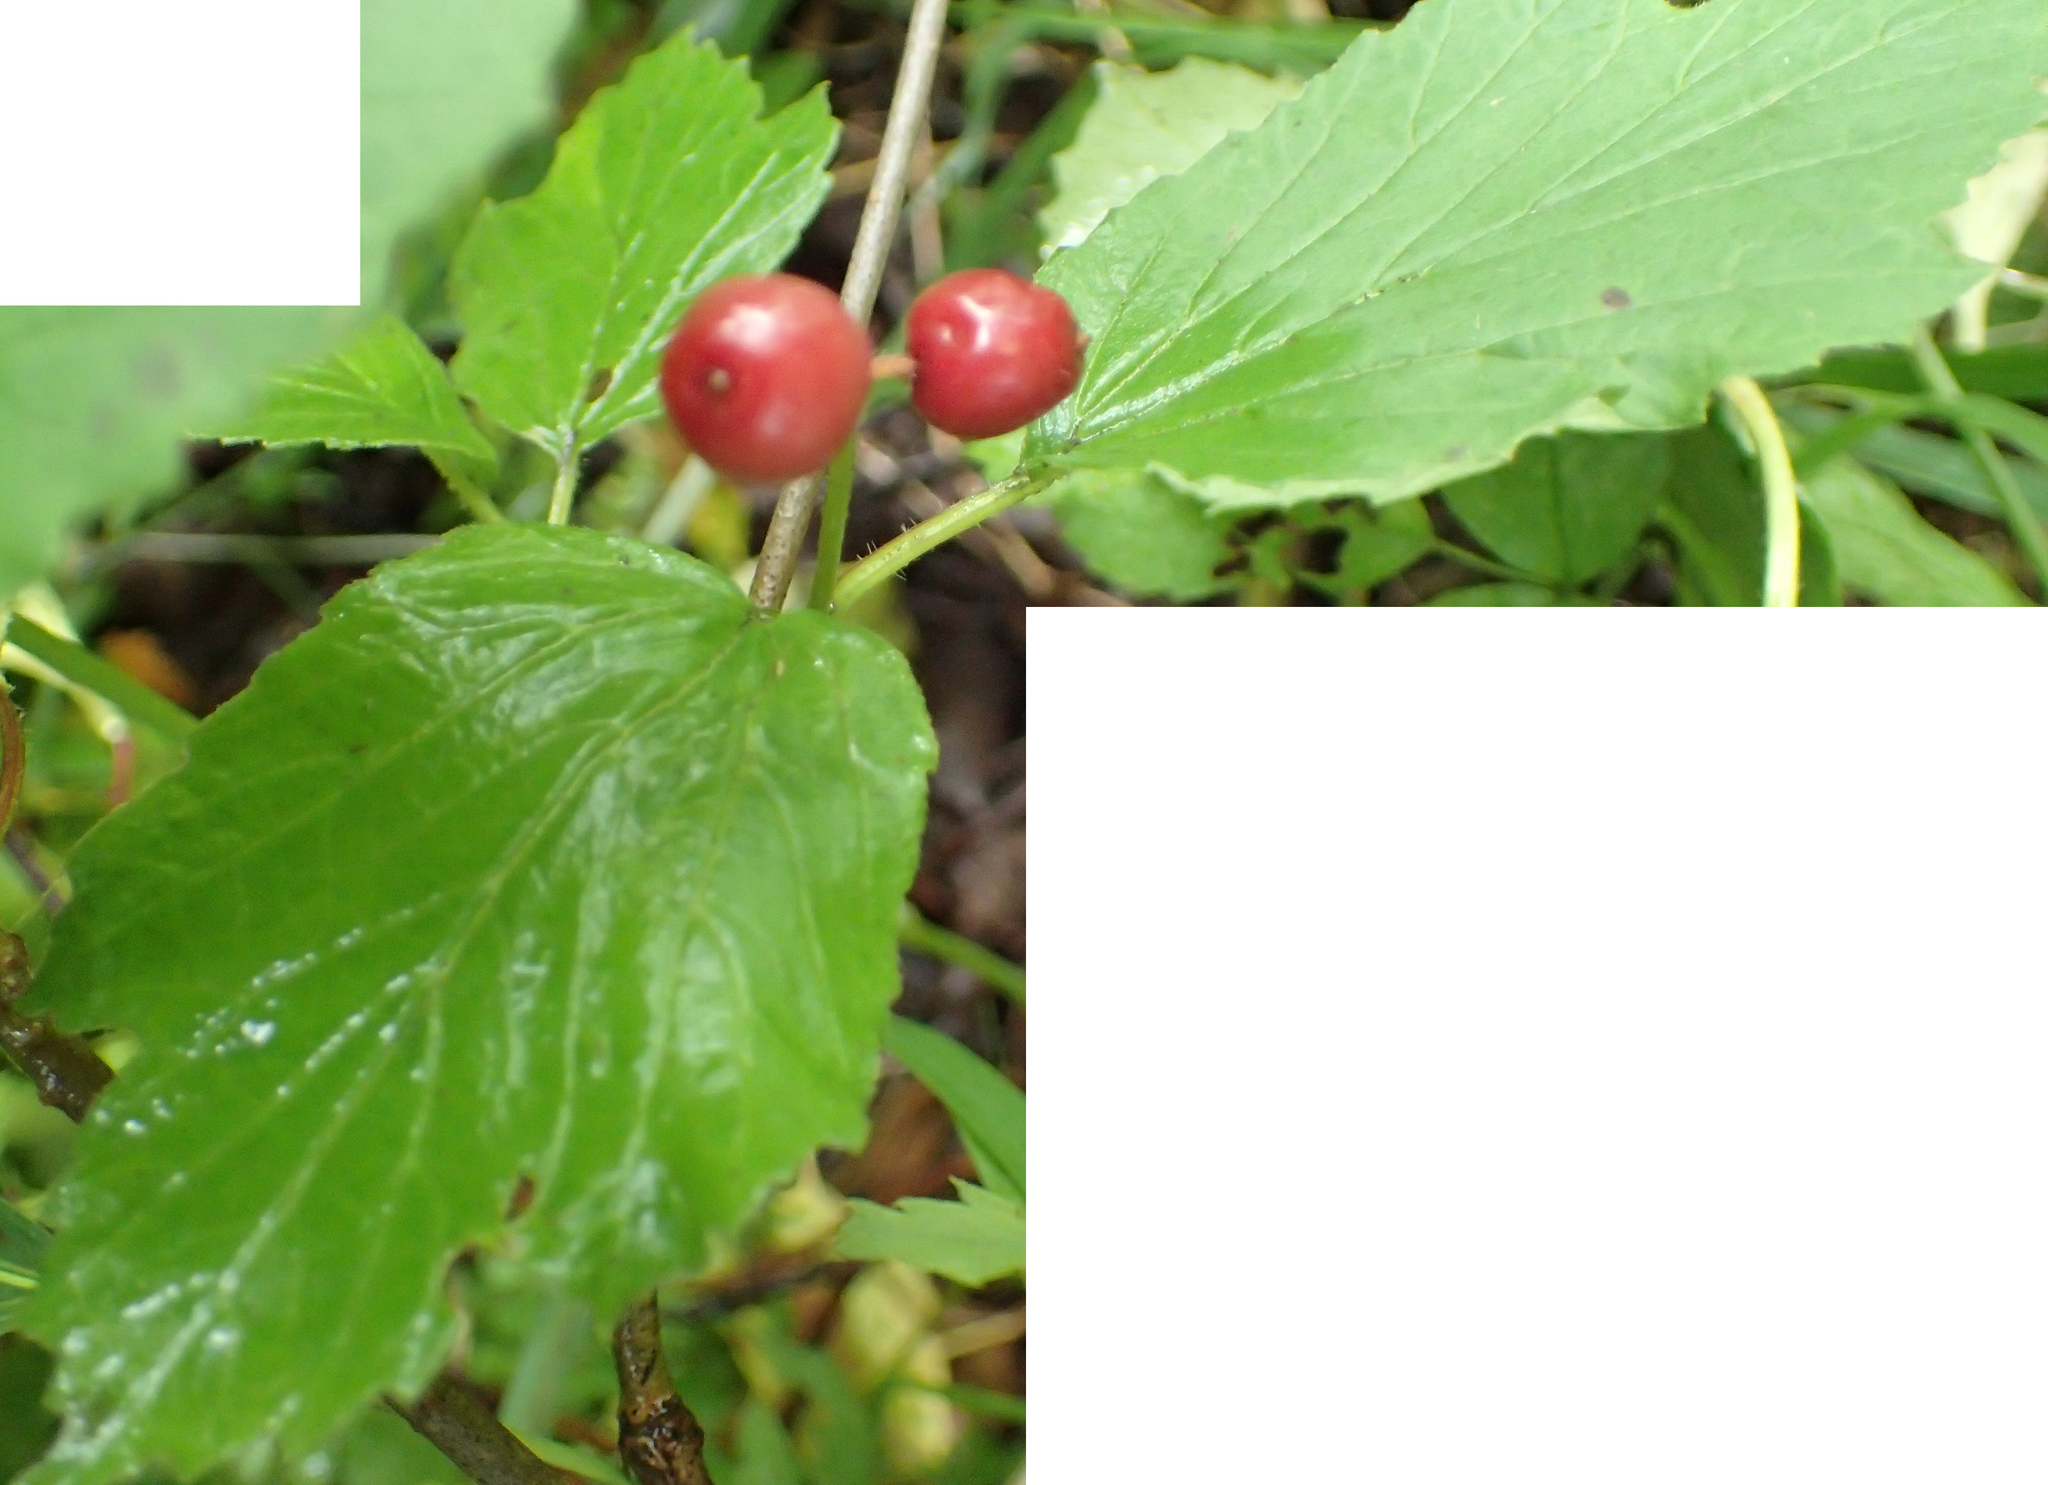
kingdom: Plantae
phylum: Tracheophyta
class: Magnoliopsida
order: Dipsacales
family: Viburnaceae
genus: Viburnum
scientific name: Viburnum edule
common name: Mooseberry
